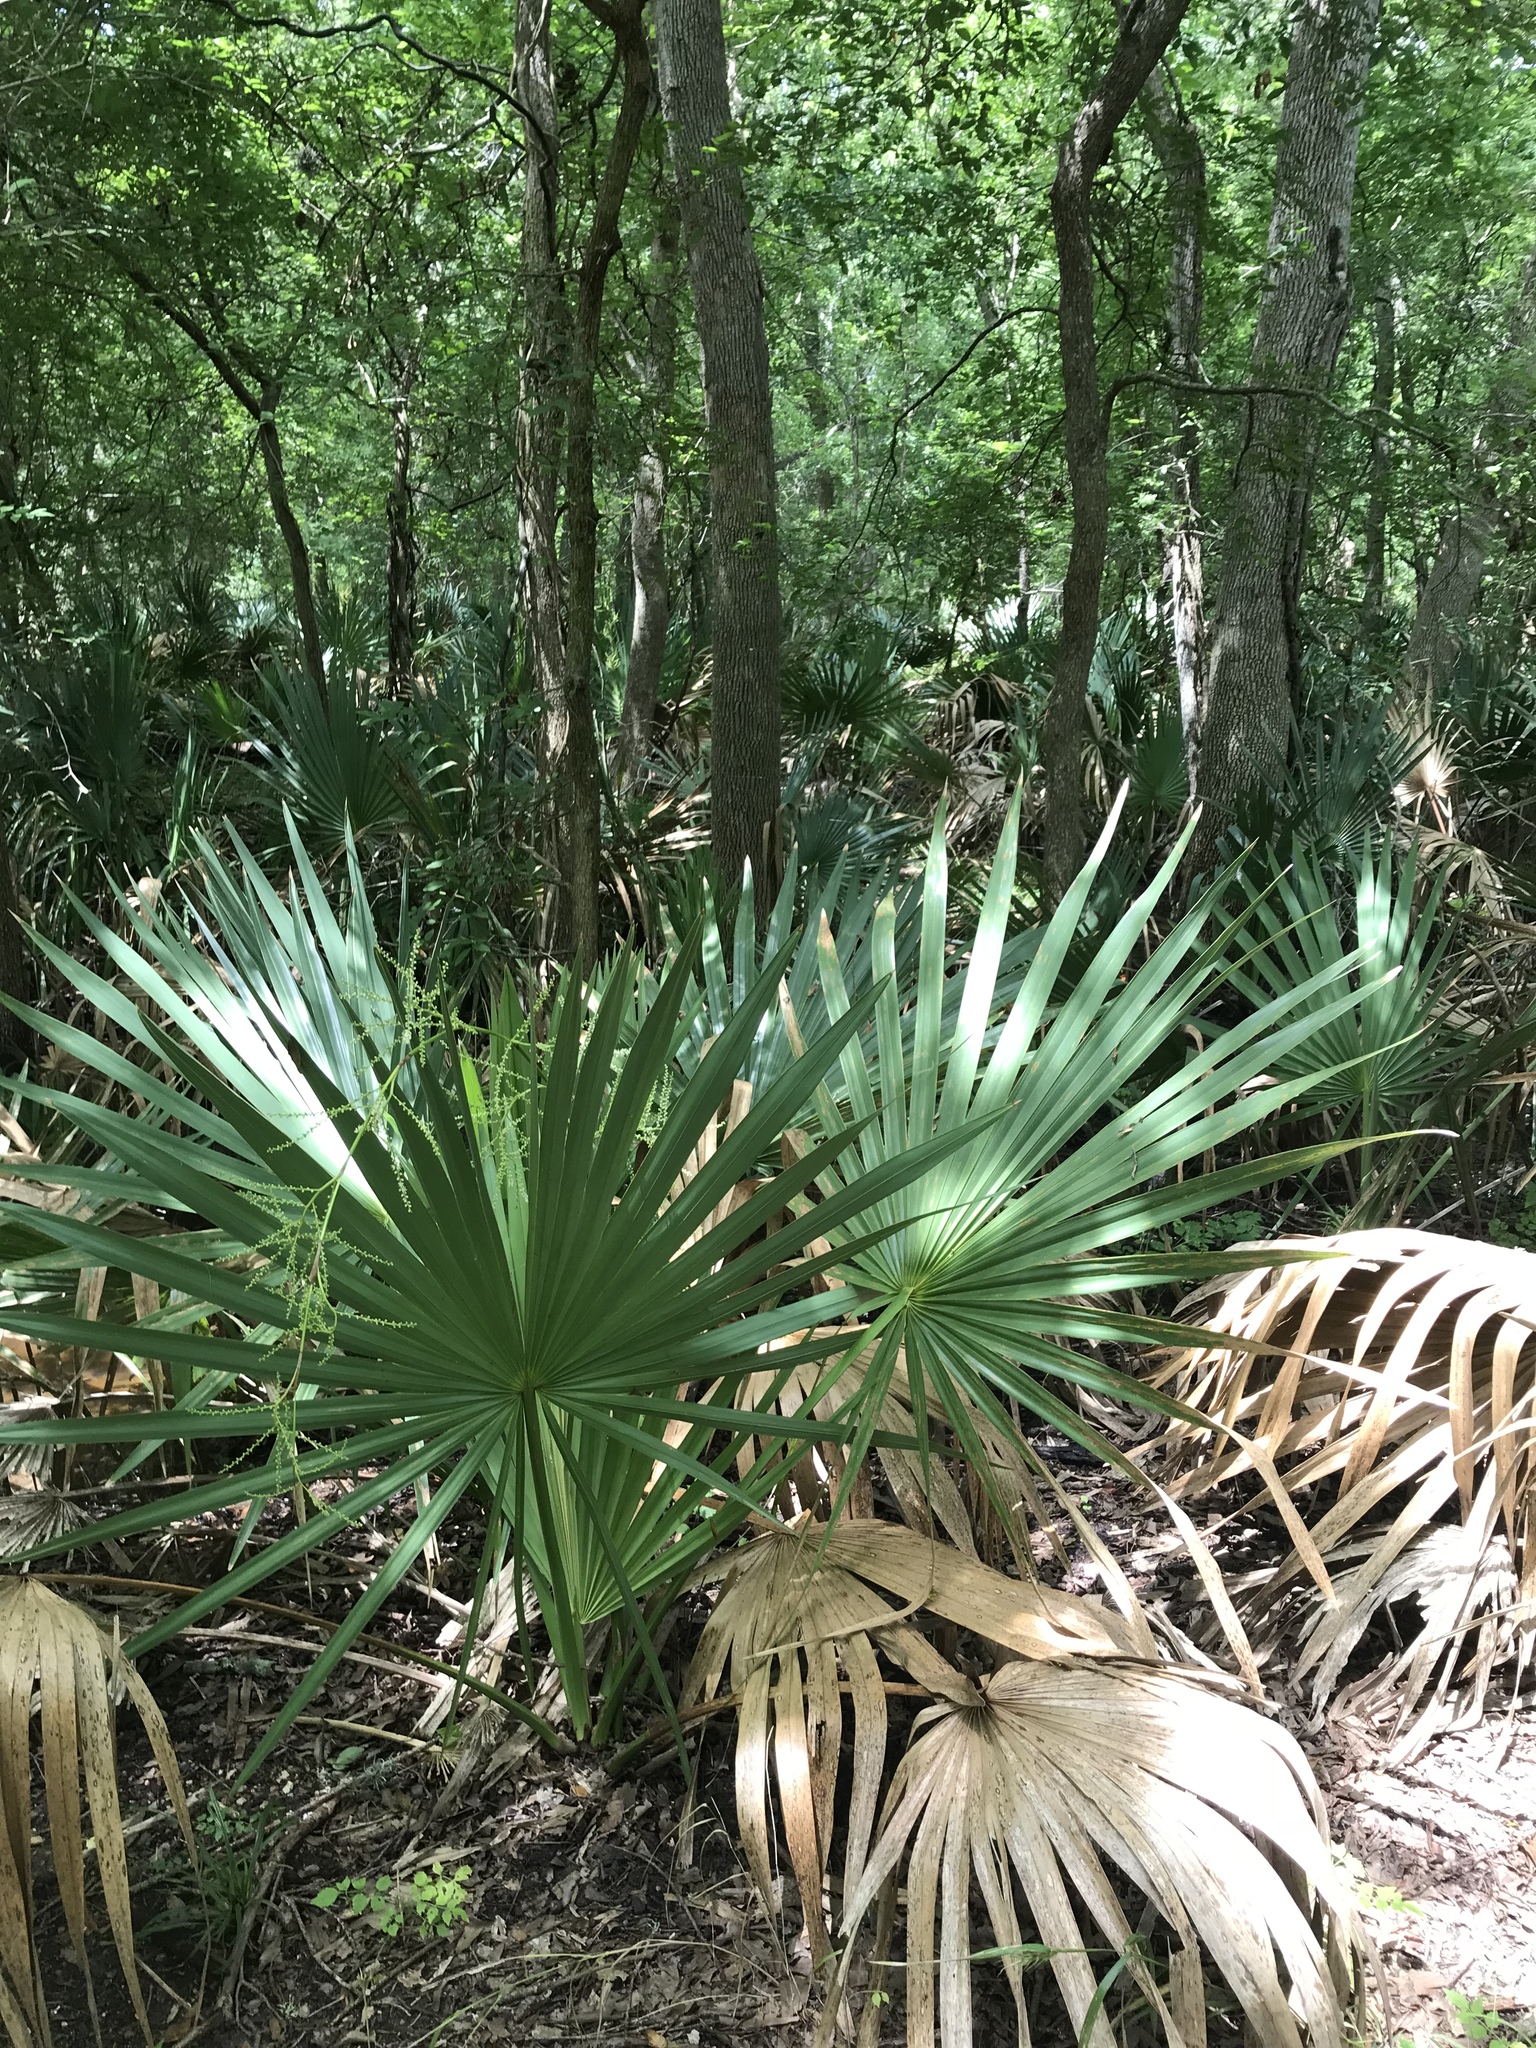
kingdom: Plantae
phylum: Tracheophyta
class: Liliopsida
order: Arecales
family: Arecaceae
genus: Sabal
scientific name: Sabal minor
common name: Dwarf palmetto
